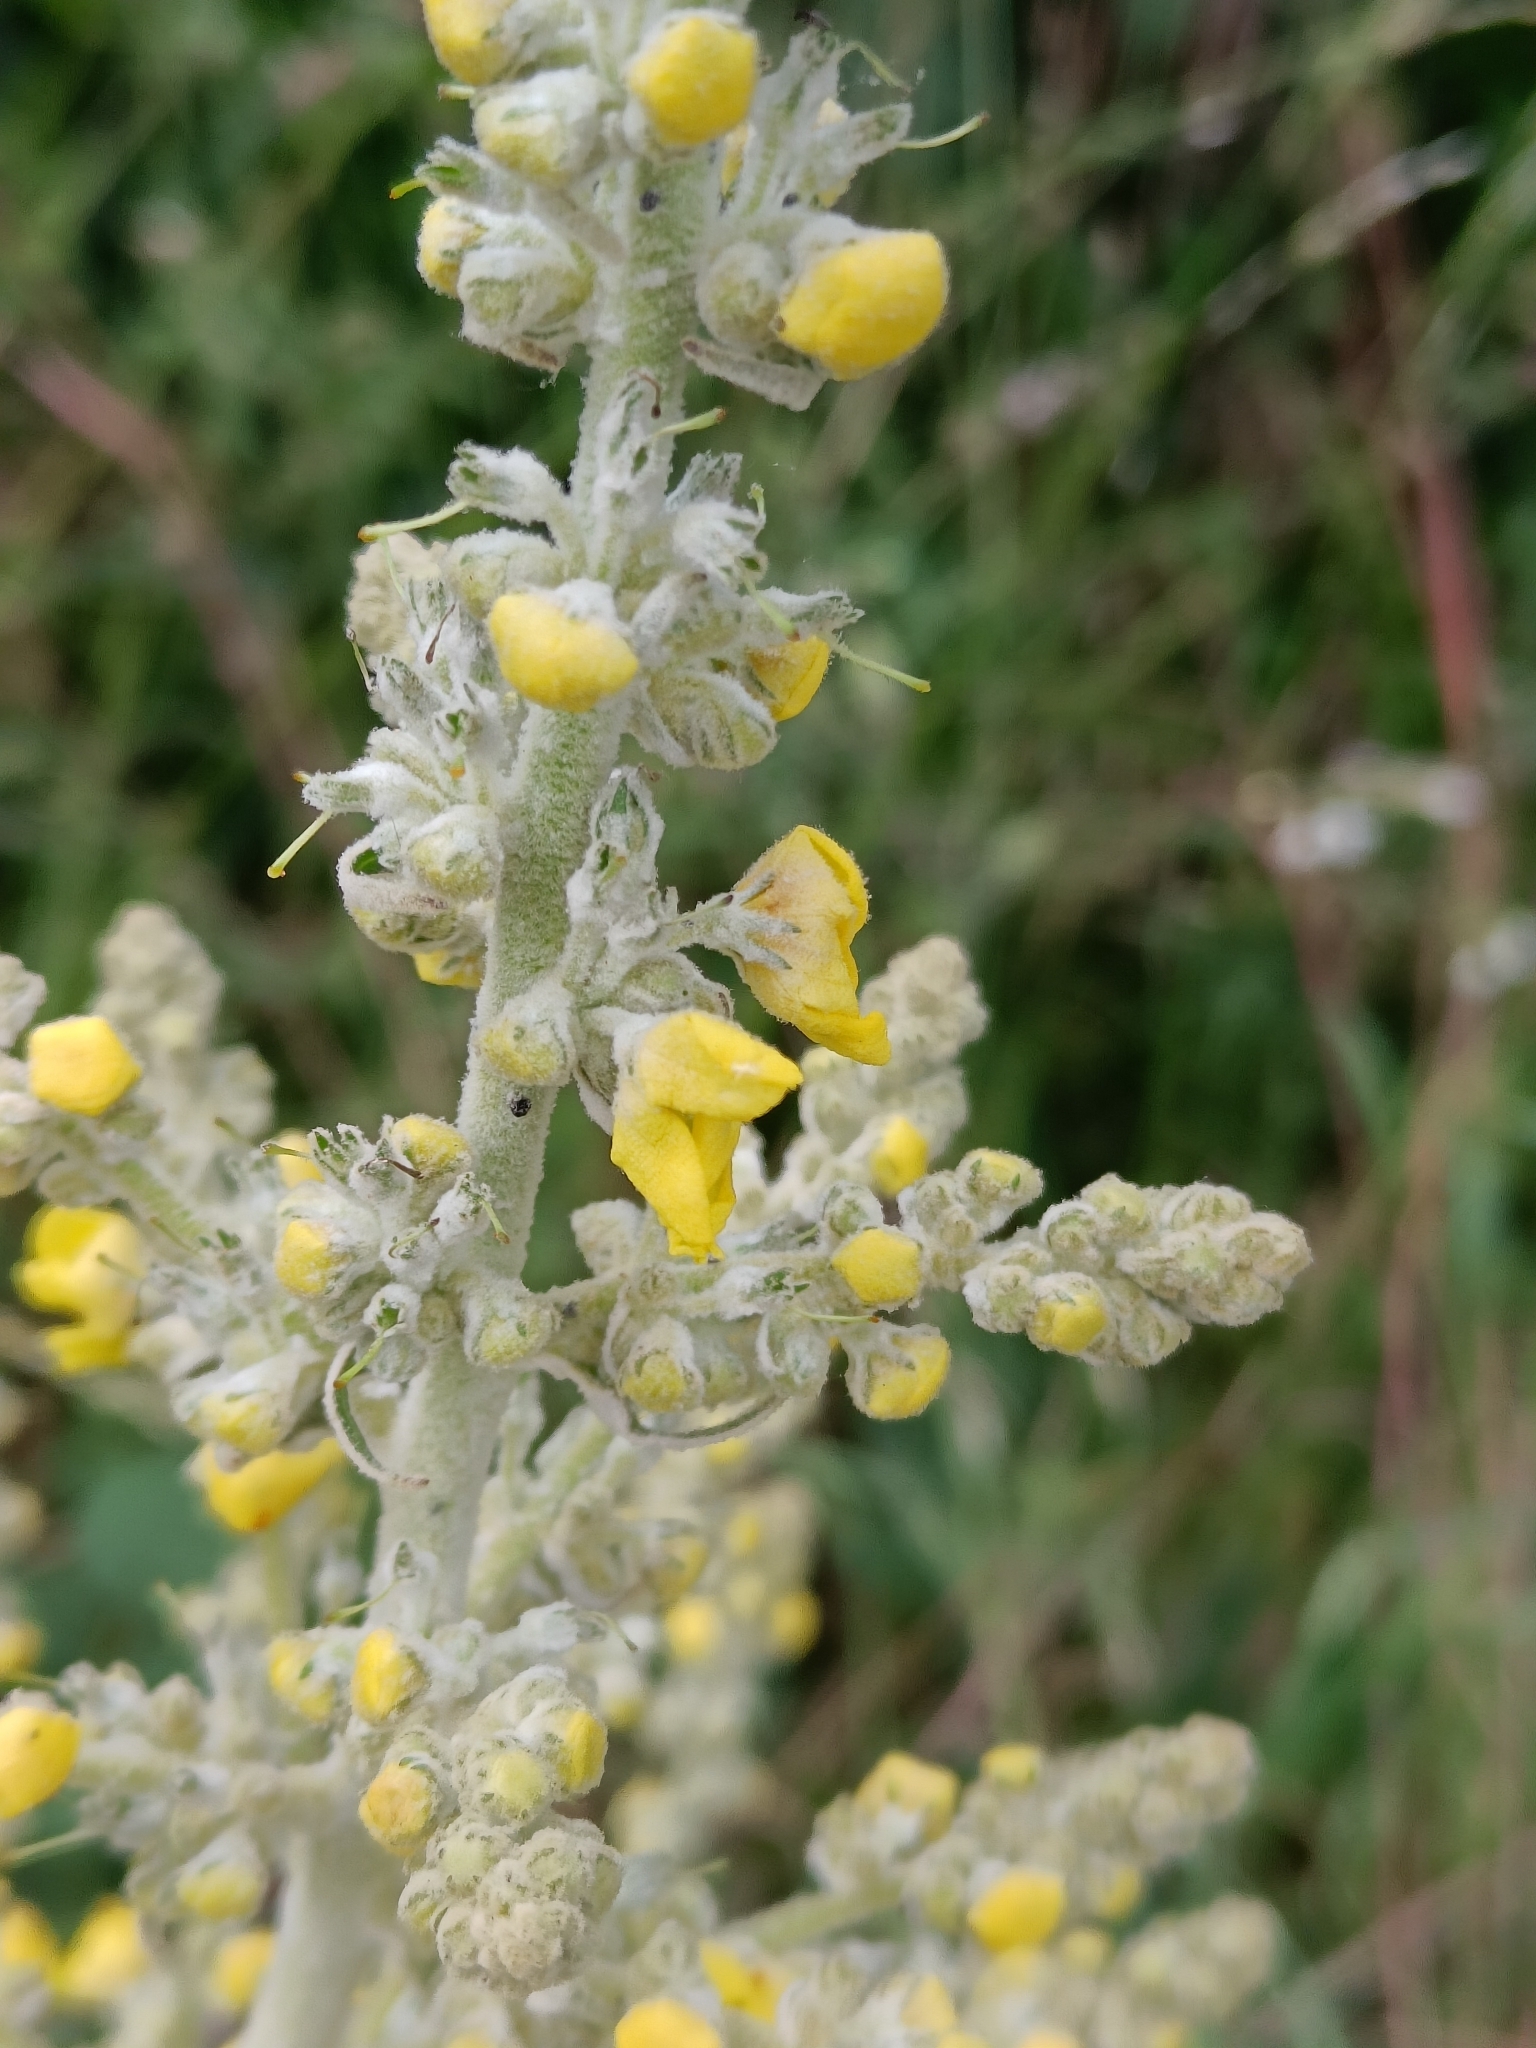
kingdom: Plantae
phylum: Tracheophyta
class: Magnoliopsida
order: Lamiales
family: Scrophulariaceae
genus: Verbascum
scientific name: Verbascum pulverulentum
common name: Broad-leaf mullein
